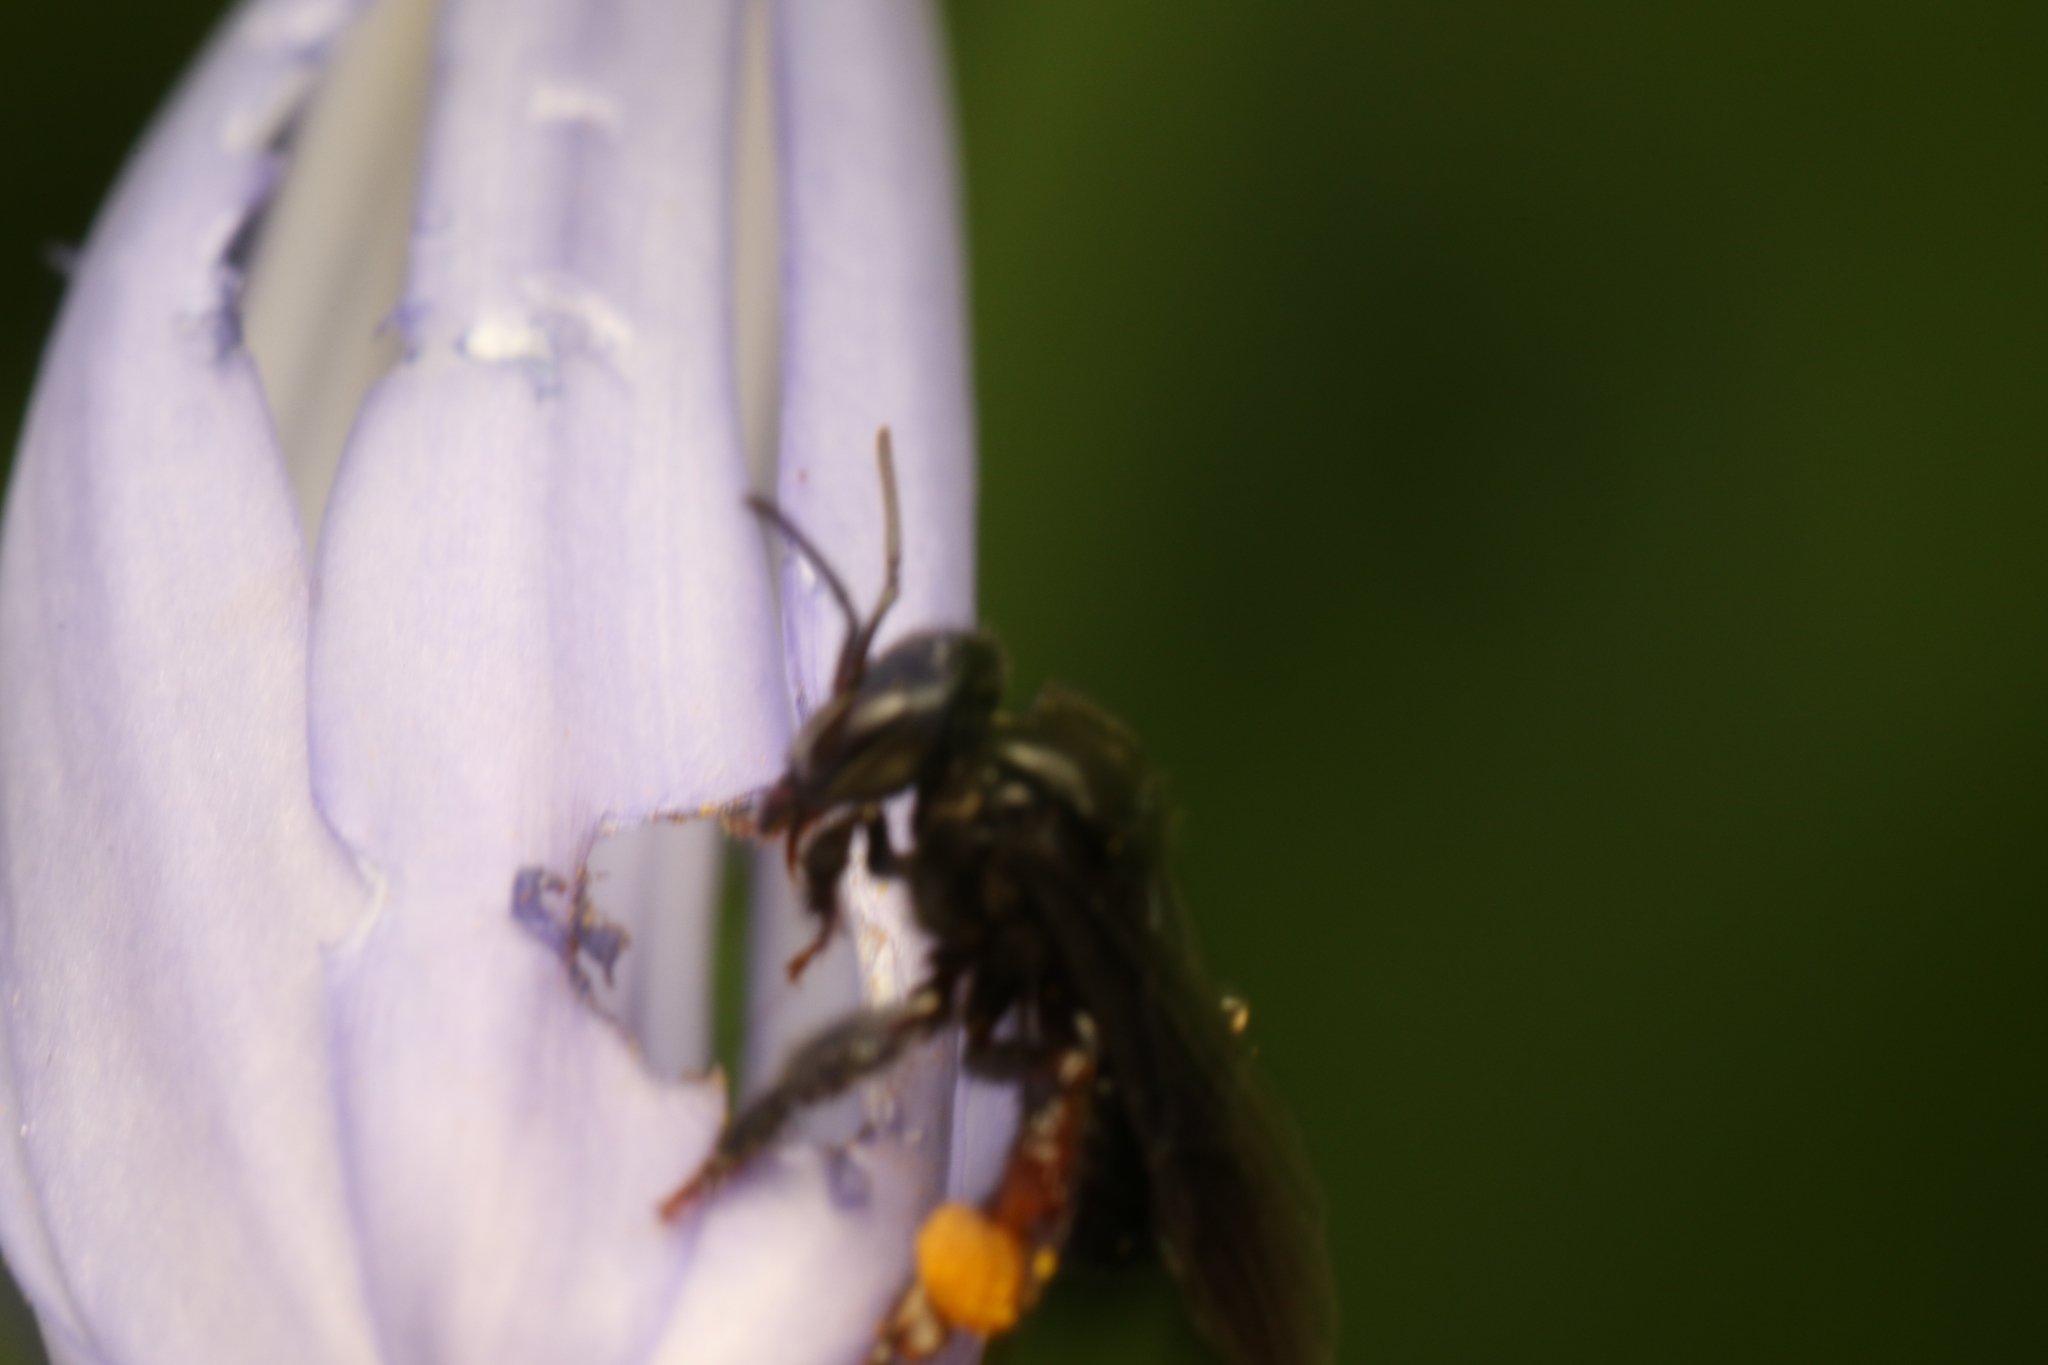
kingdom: Animalia
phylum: Arthropoda
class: Insecta
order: Hymenoptera
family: Apidae
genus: Trigona
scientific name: Trigona spinipes
